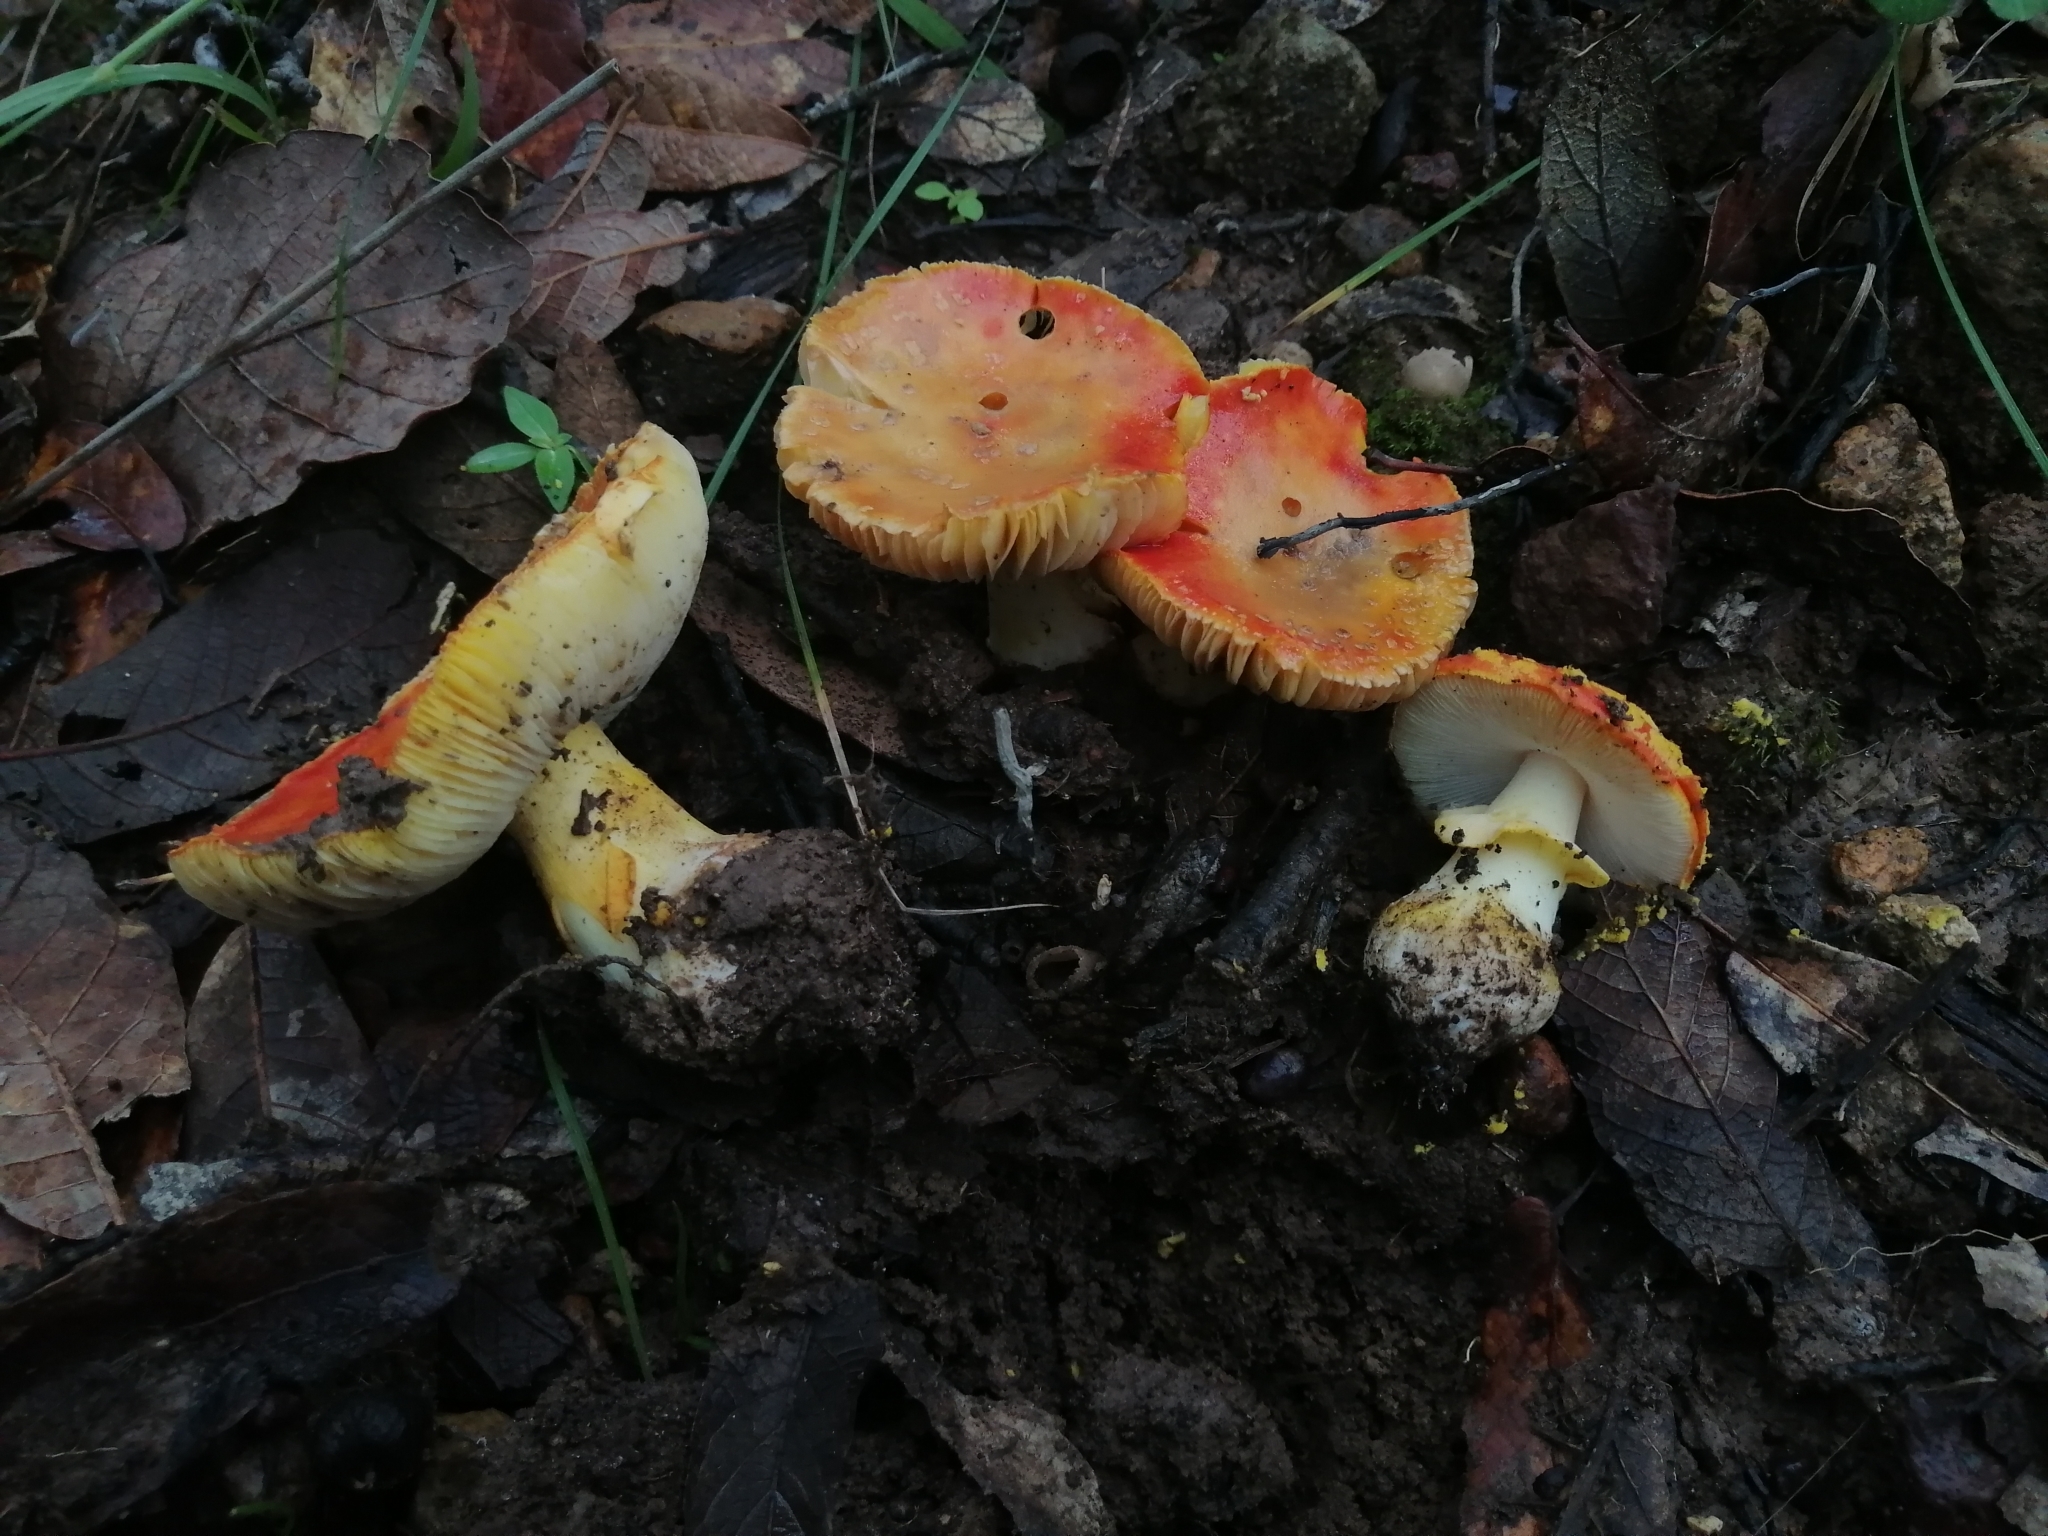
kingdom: Fungi
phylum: Basidiomycota
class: Agaricomycetes
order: Agaricales
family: Amanitaceae
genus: Amanita
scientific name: Amanita flavoconia
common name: Yellow patches
